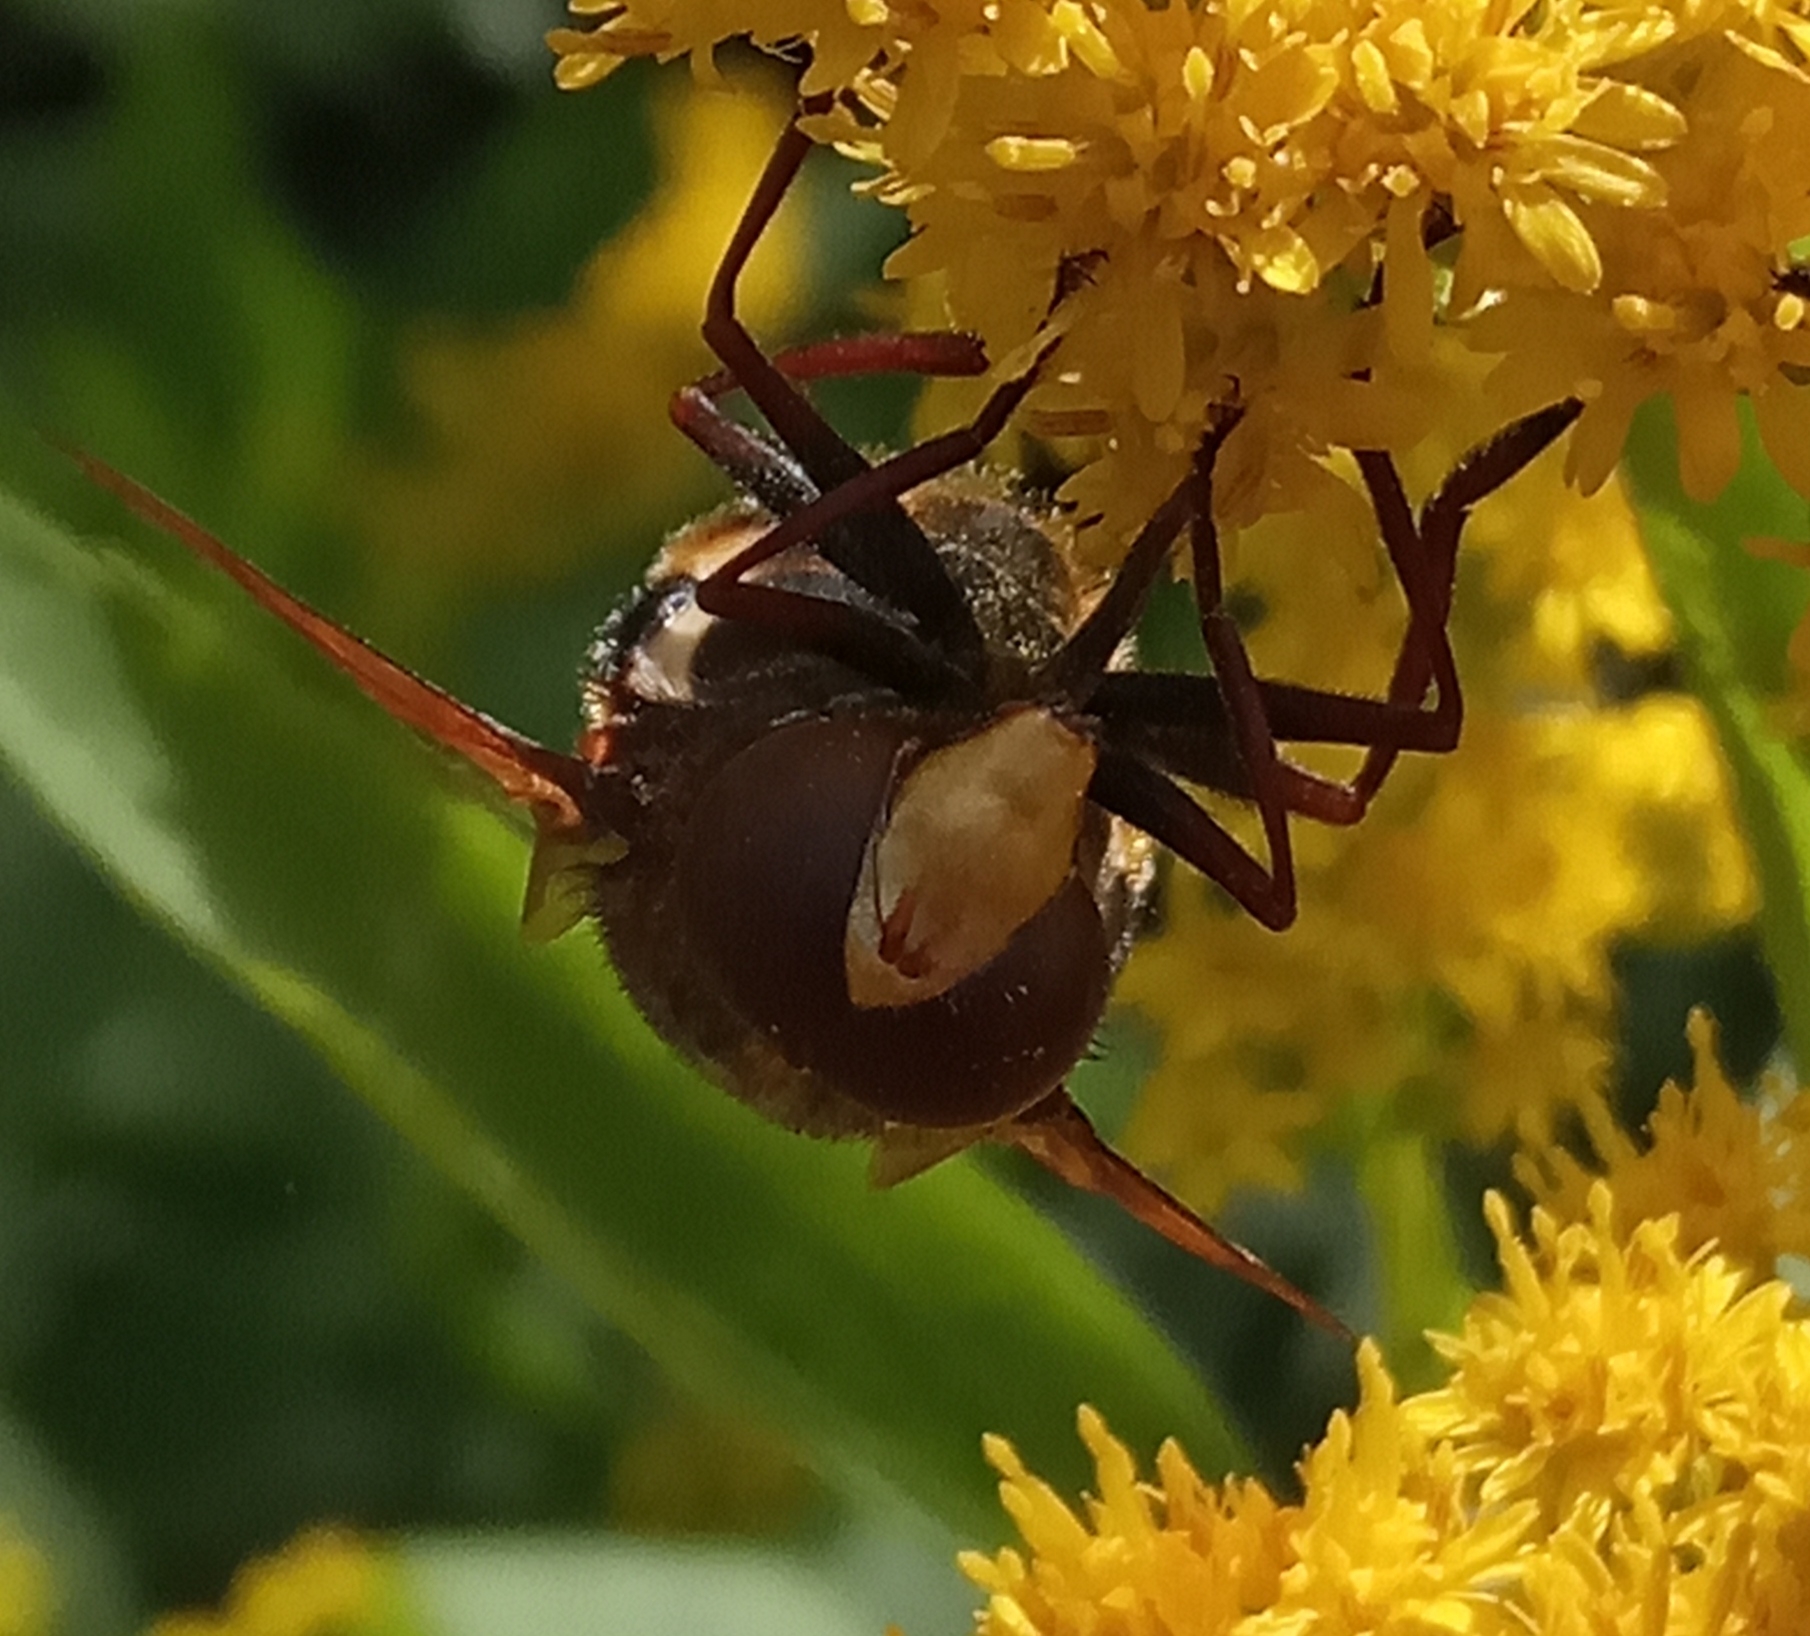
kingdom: Animalia
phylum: Arthropoda
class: Insecta
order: Diptera
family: Syrphidae
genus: Volucella
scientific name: Volucella zonaria
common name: Hornet hoverfly
